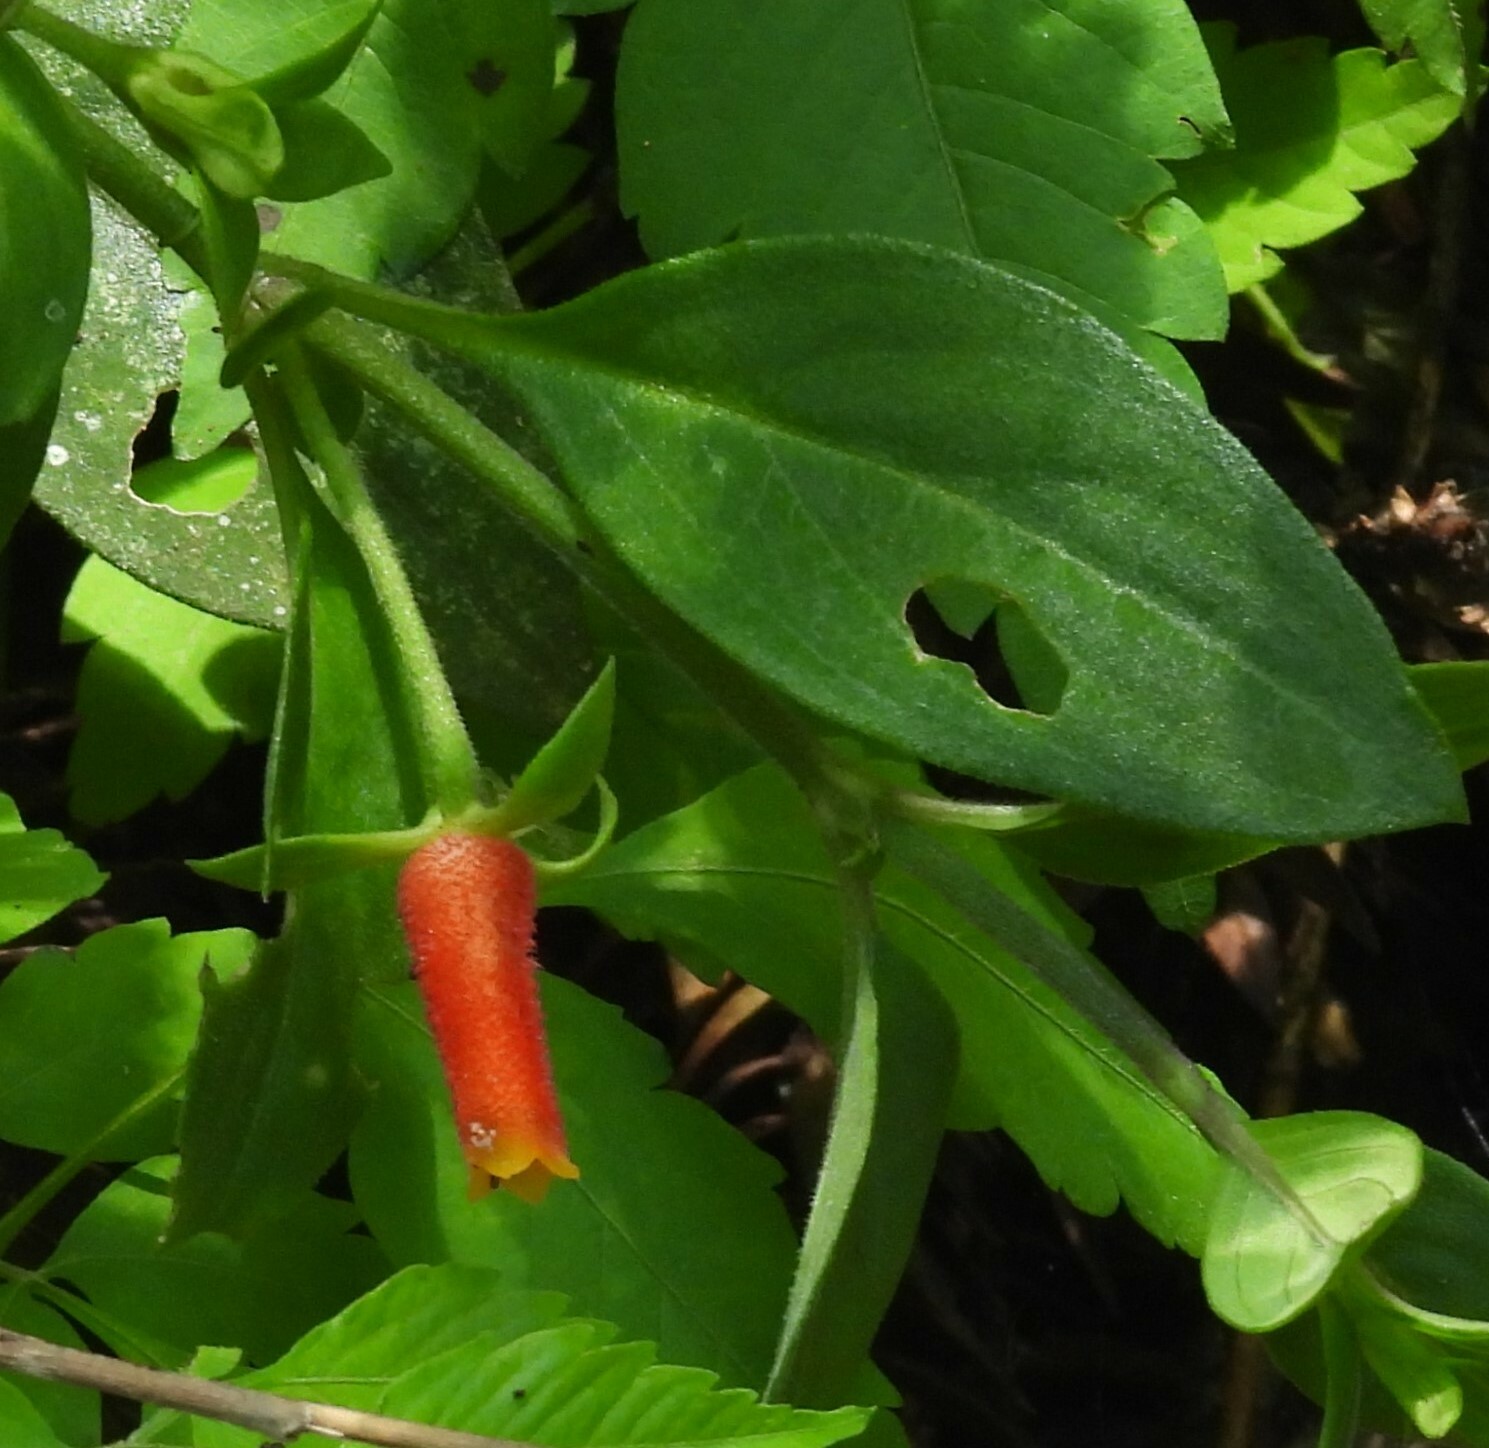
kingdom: Plantae
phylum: Tracheophyta
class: Magnoliopsida
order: Gentianales
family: Rubiaceae
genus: Manettia
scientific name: Manettia paraguariensis
